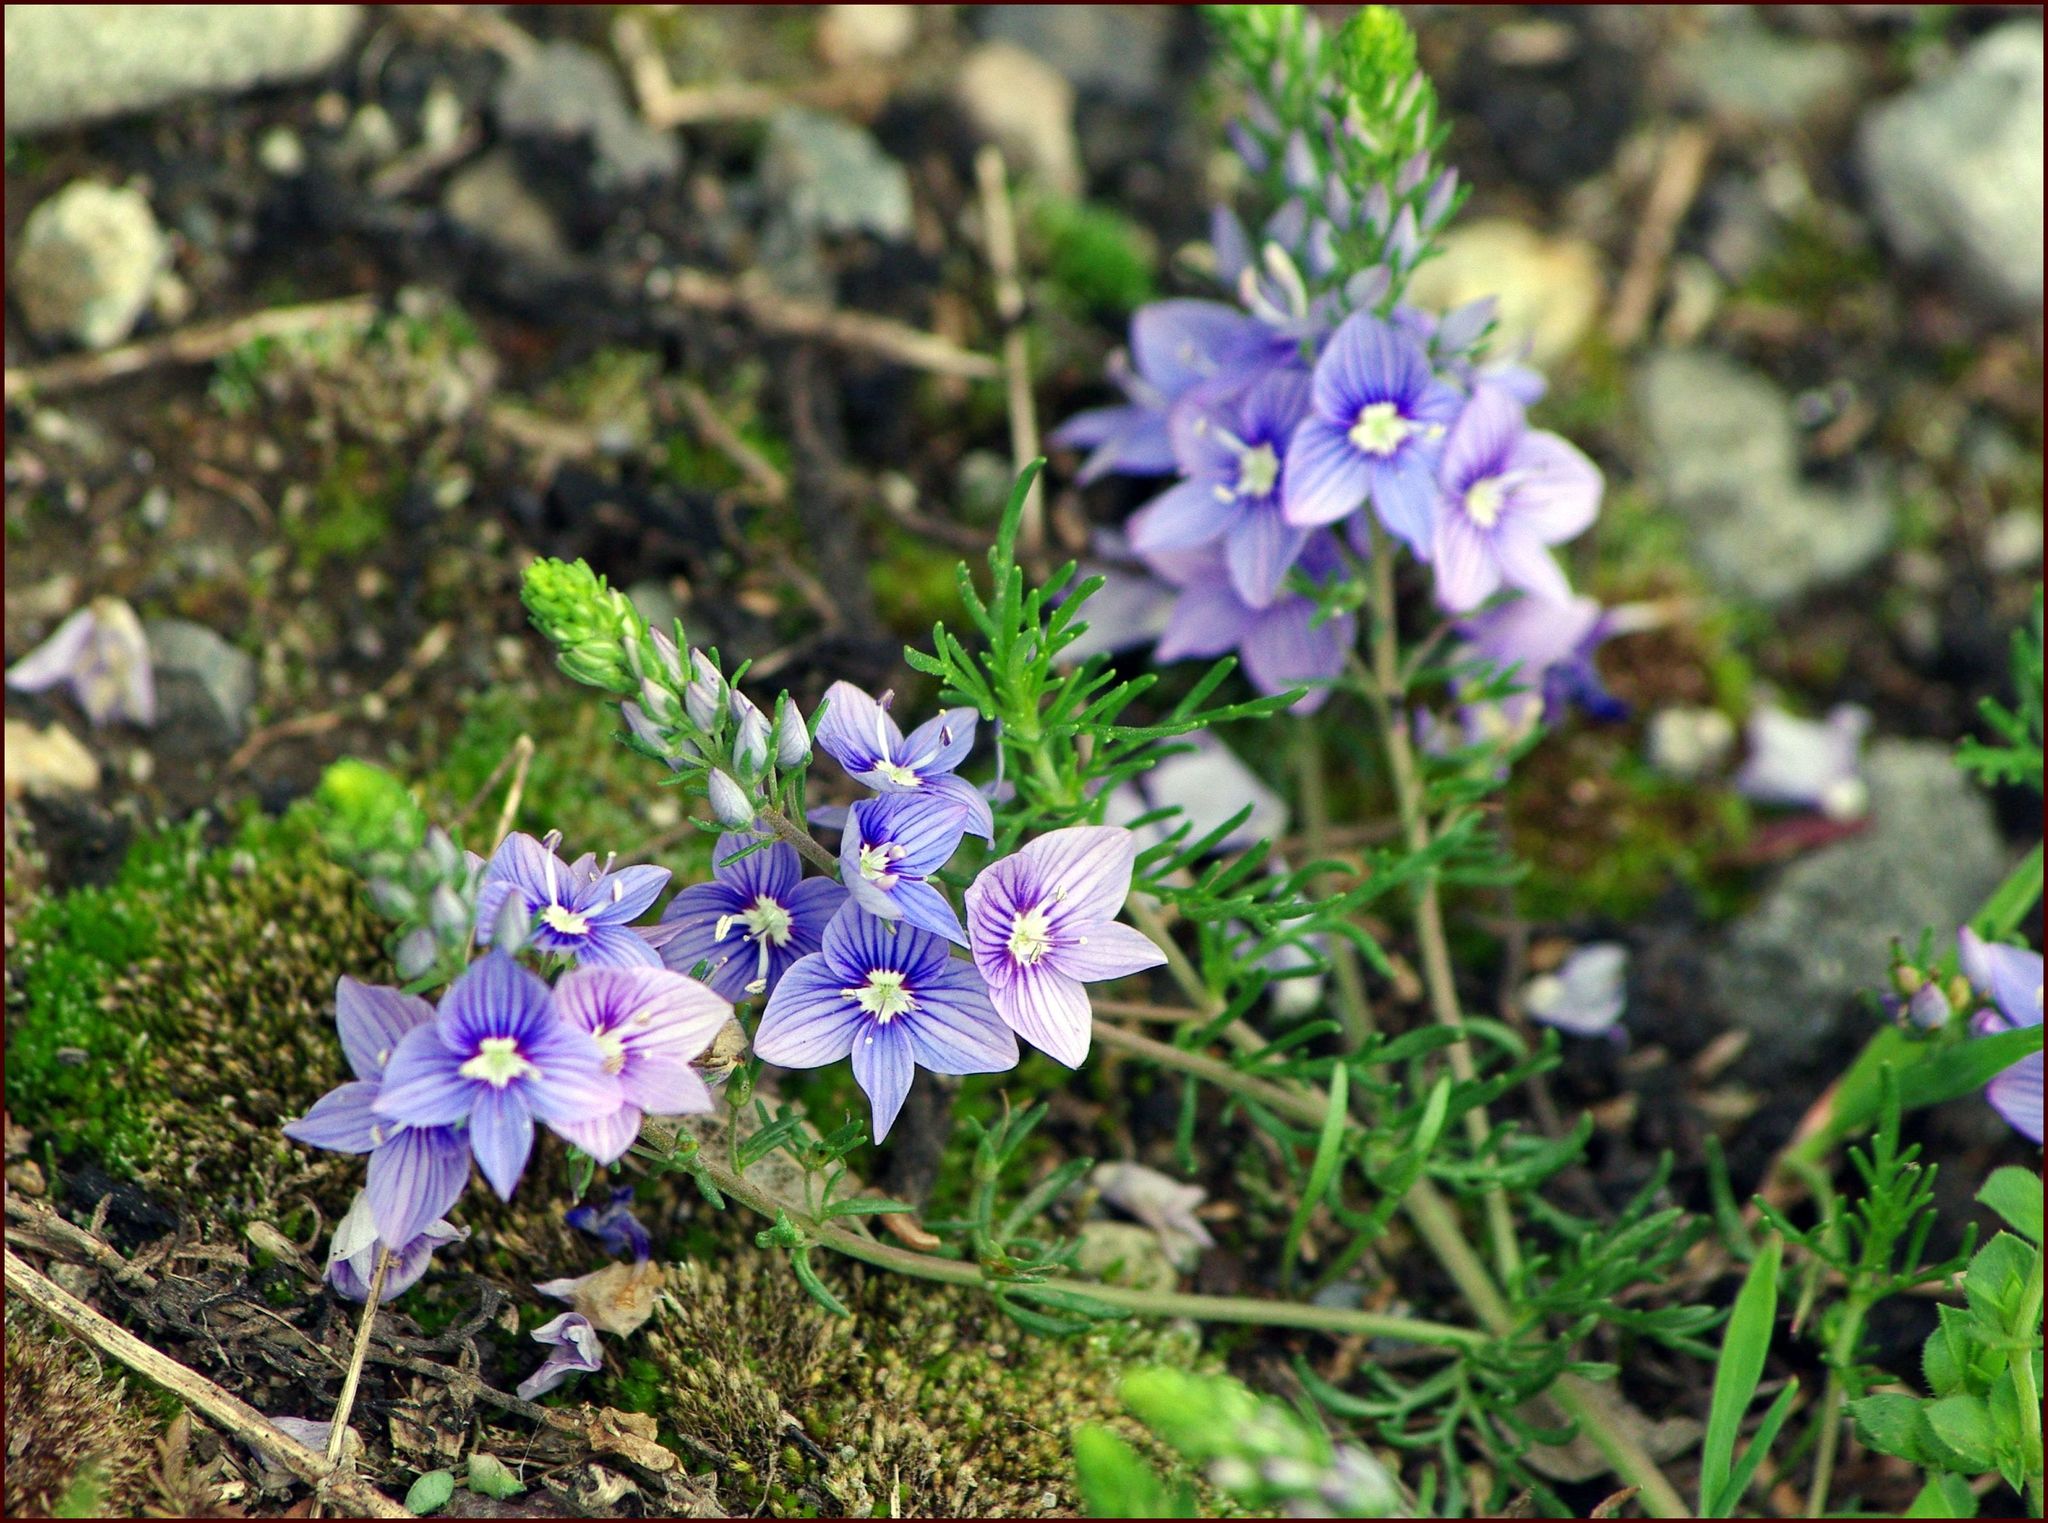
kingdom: Plantae
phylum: Tracheophyta
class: Magnoliopsida
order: Lamiales
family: Plantaginaceae
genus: Veronica
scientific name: Veronica multifida
